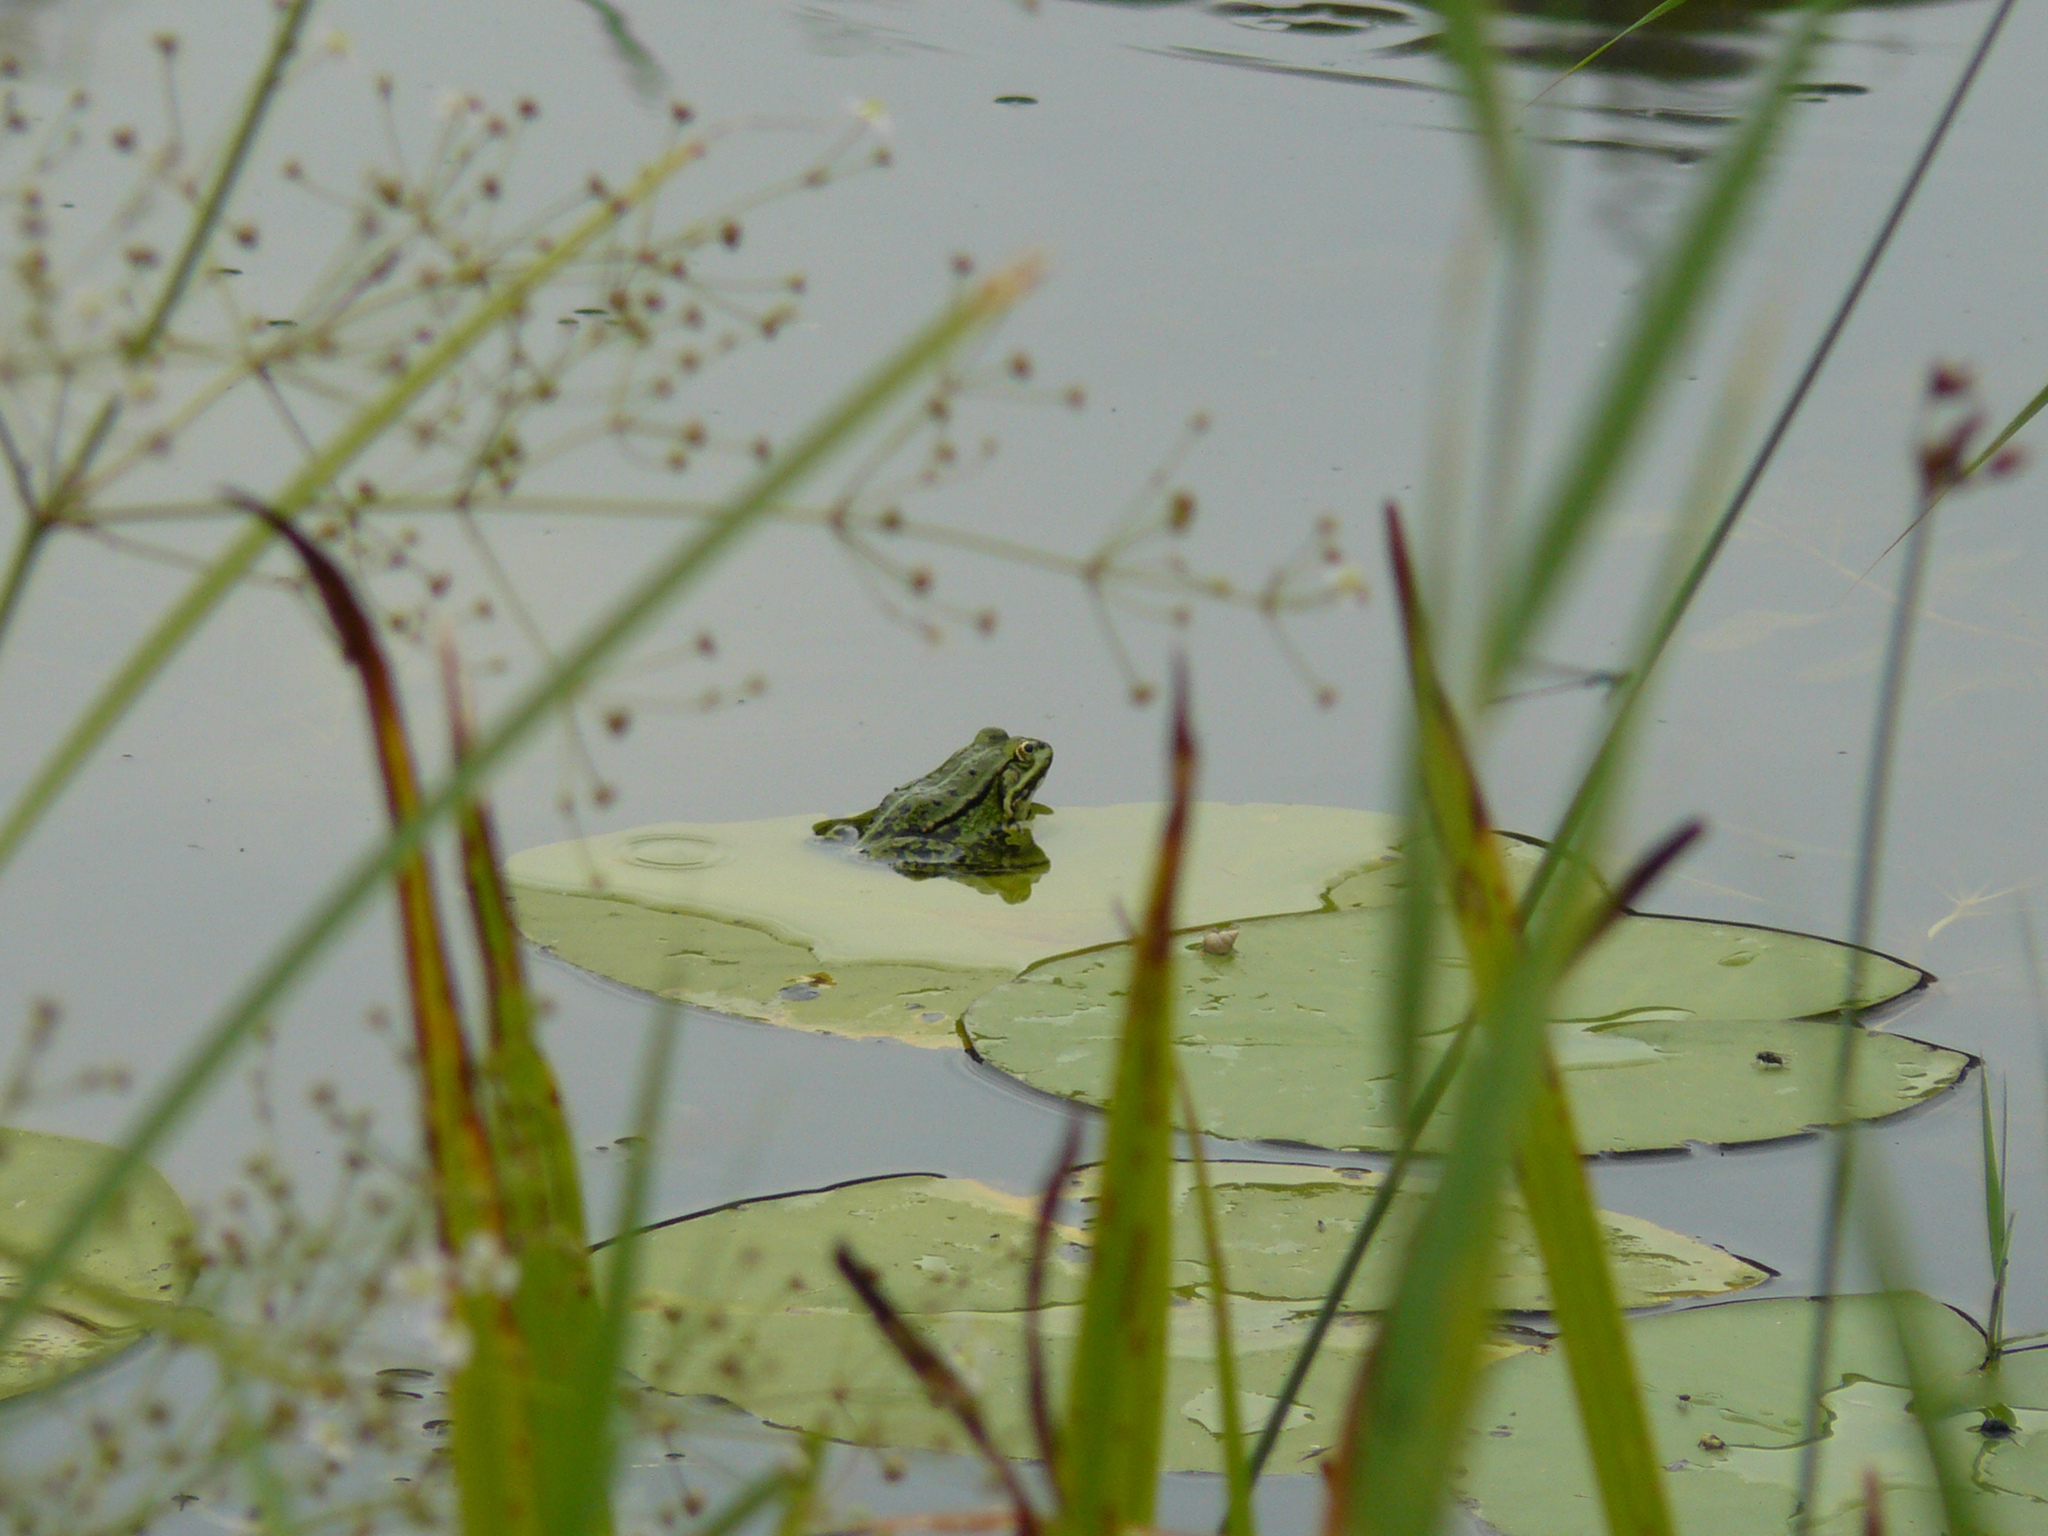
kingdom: Animalia
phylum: Chordata
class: Amphibia
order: Anura
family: Ranidae
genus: Pelophylax
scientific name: Pelophylax
